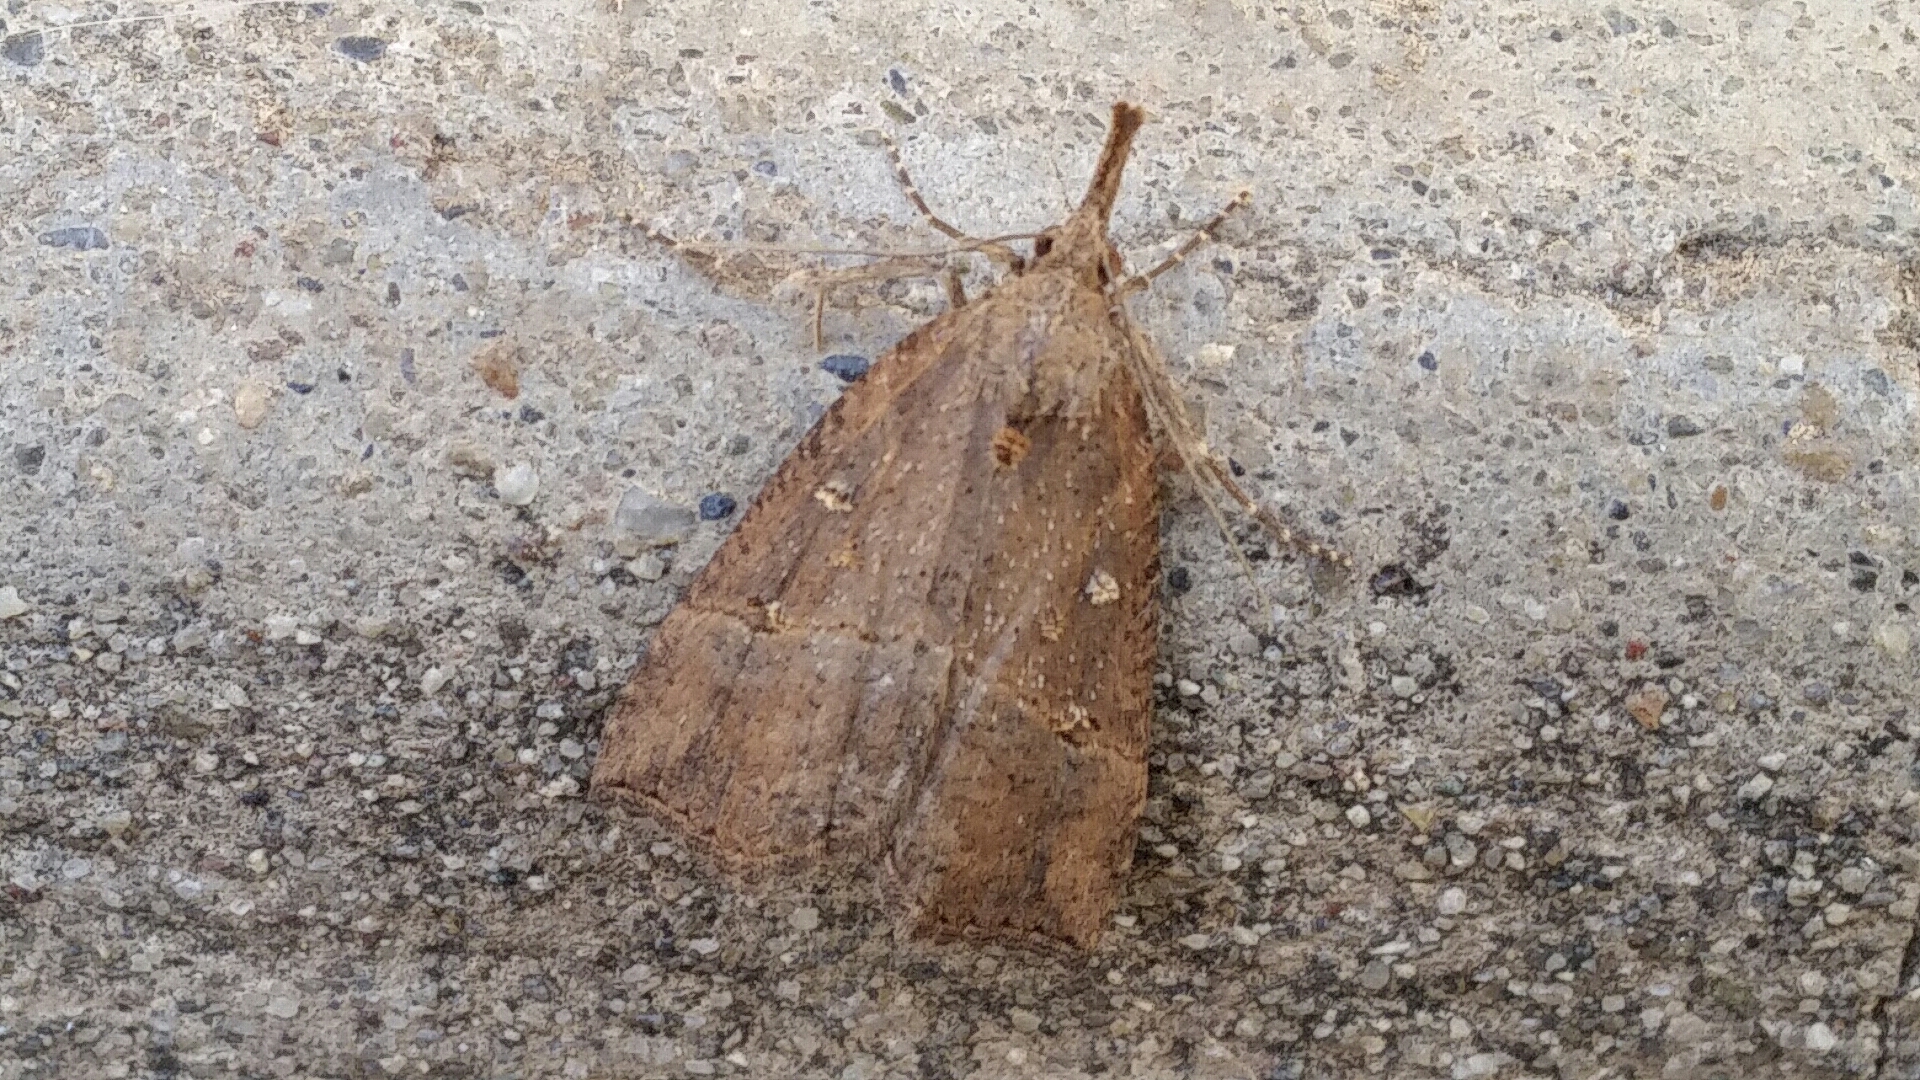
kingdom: Animalia
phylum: Arthropoda
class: Insecta
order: Lepidoptera
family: Erebidae
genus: Hypena
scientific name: Hypena rostralis
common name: Buttoned snout
